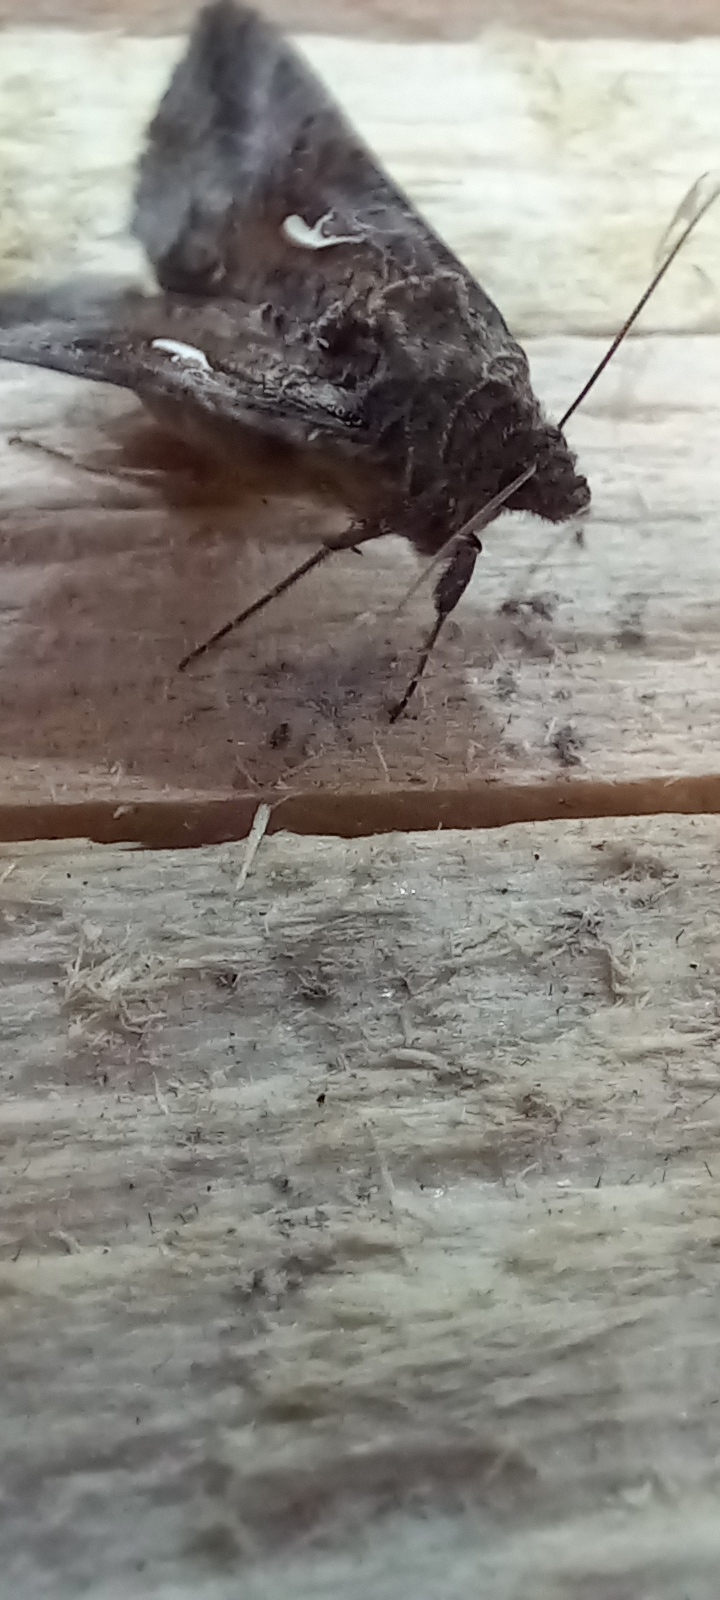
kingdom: Animalia
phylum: Arthropoda
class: Insecta
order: Lepidoptera
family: Noctuidae
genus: Autographa
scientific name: Autographa gamma
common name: Silver y
